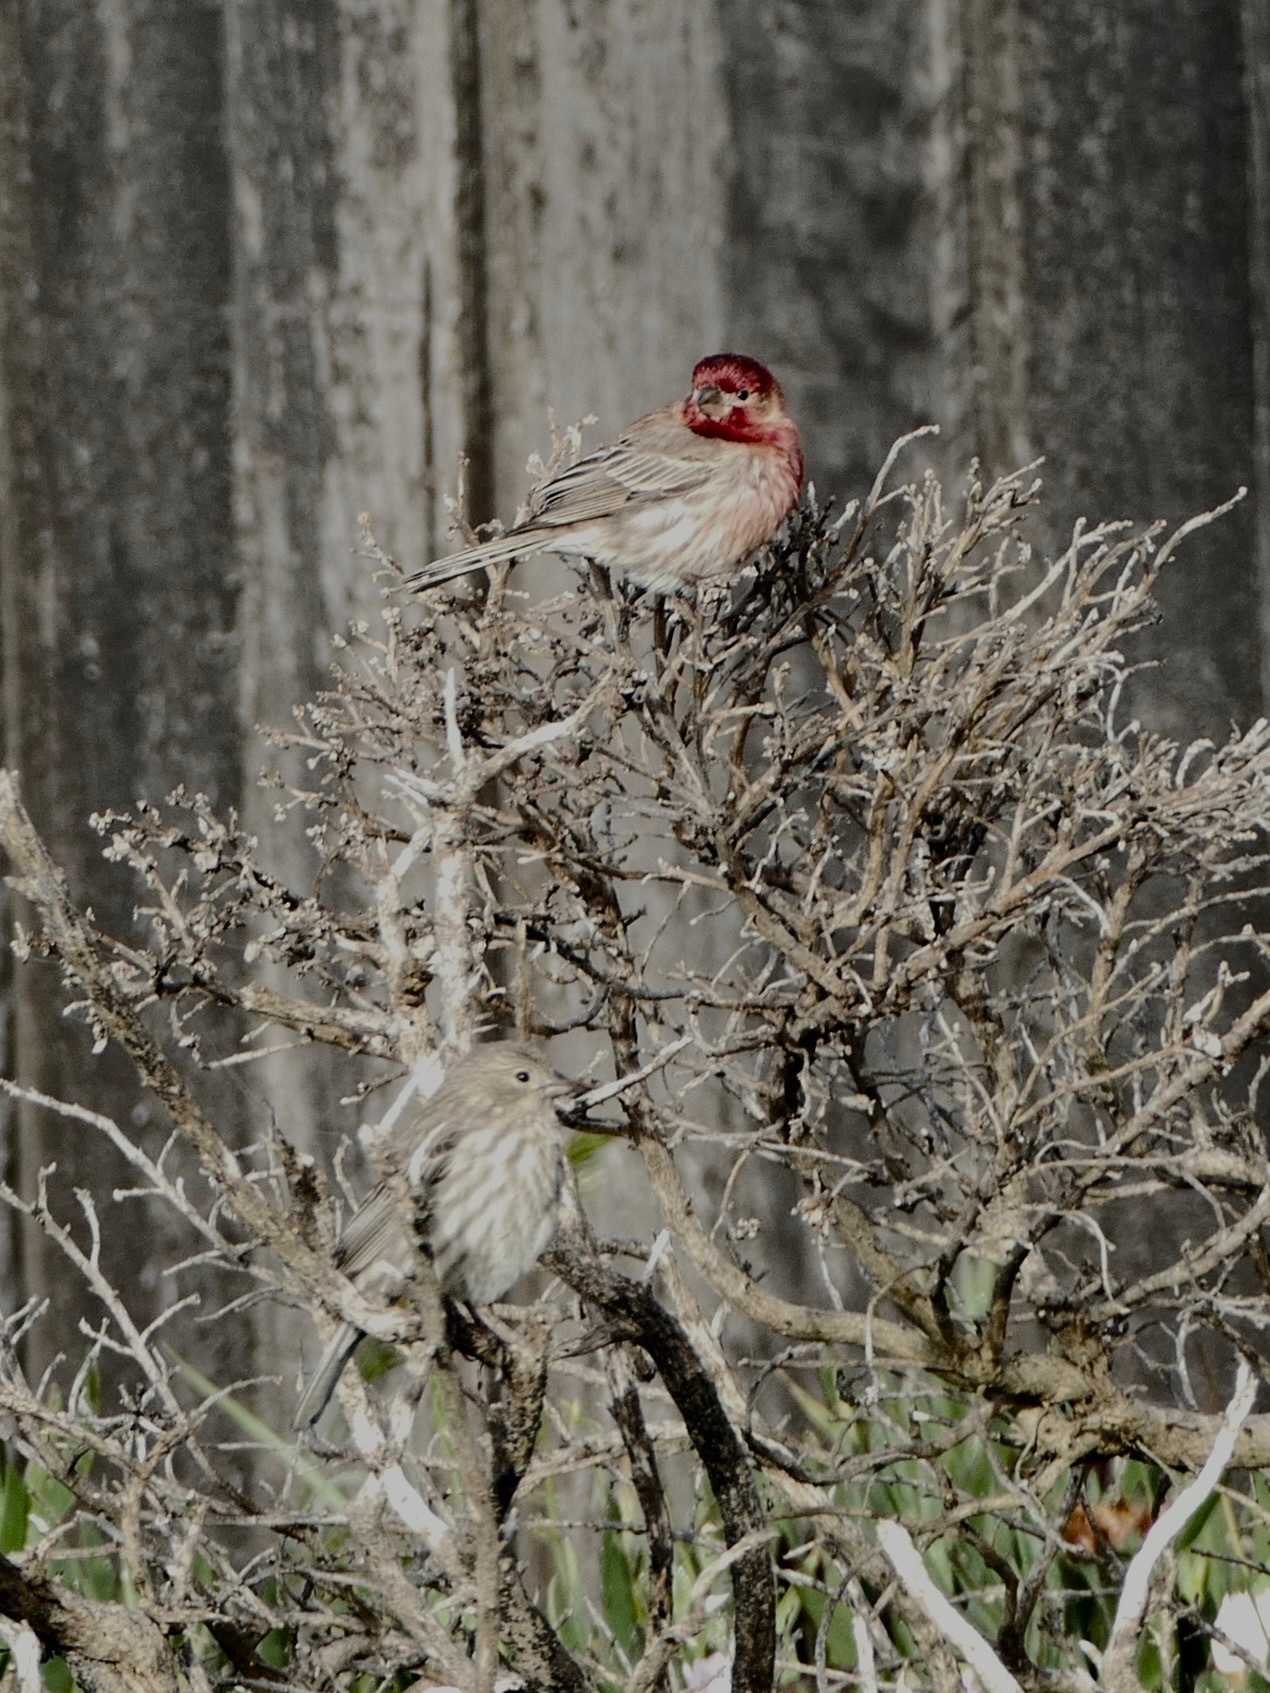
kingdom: Animalia
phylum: Chordata
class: Aves
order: Passeriformes
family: Fringillidae
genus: Haemorhous
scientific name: Haemorhous mexicanus
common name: House finch
